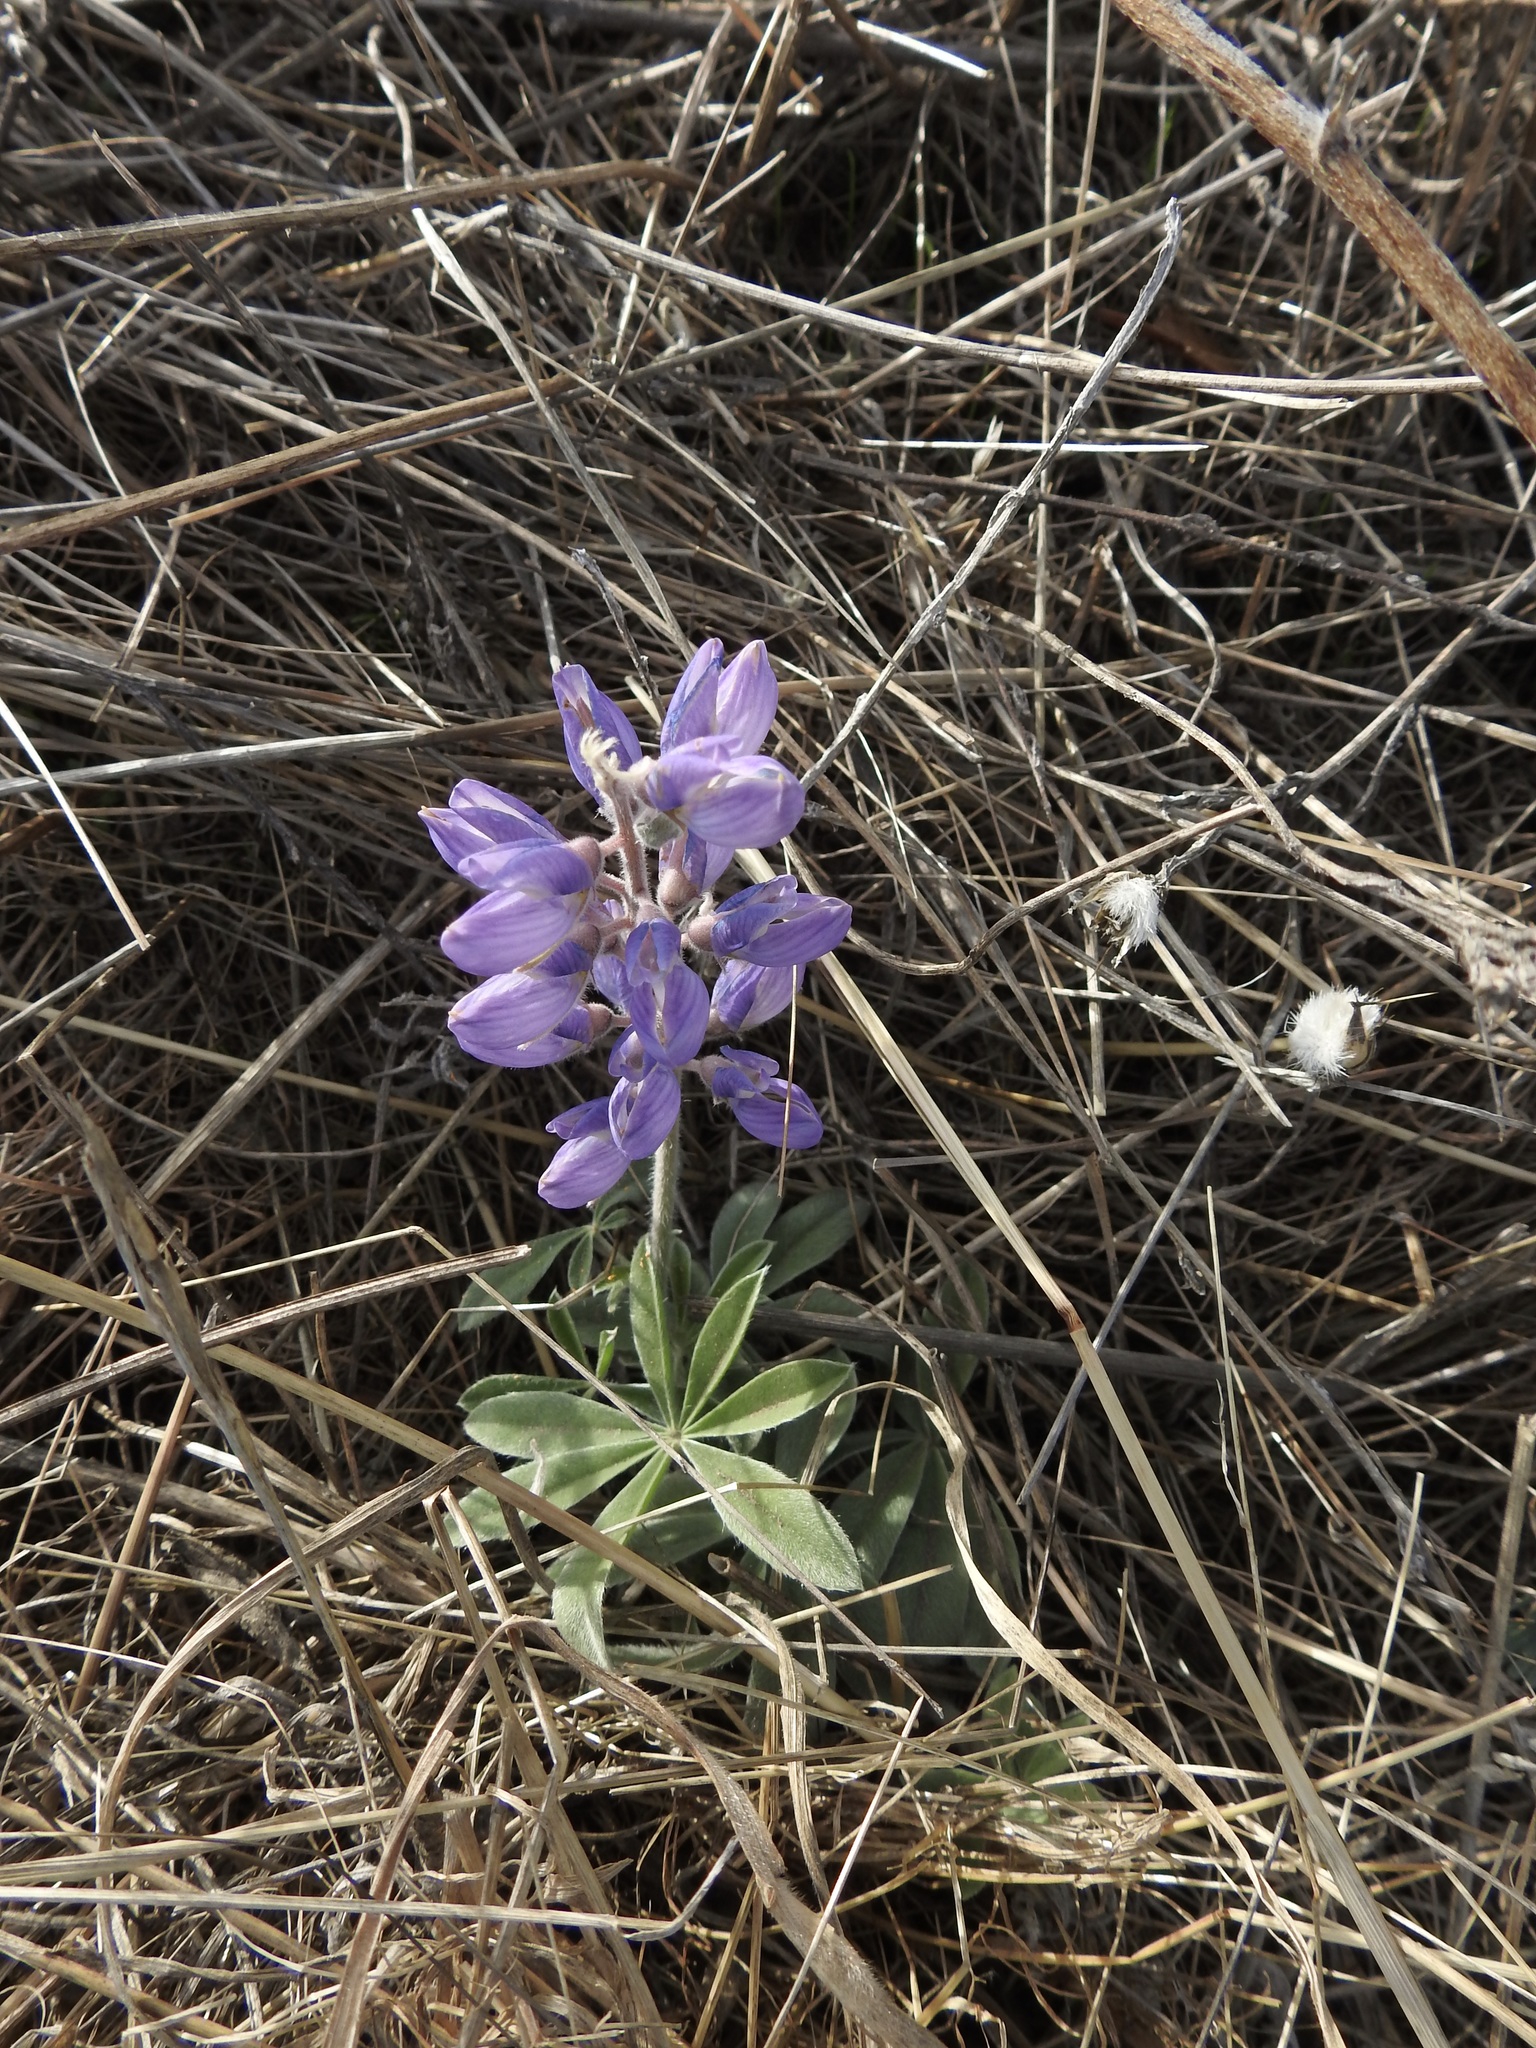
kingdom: Plantae
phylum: Tracheophyta
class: Magnoliopsida
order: Fabales
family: Fabaceae
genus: Lupinus
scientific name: Lupinus formosus
